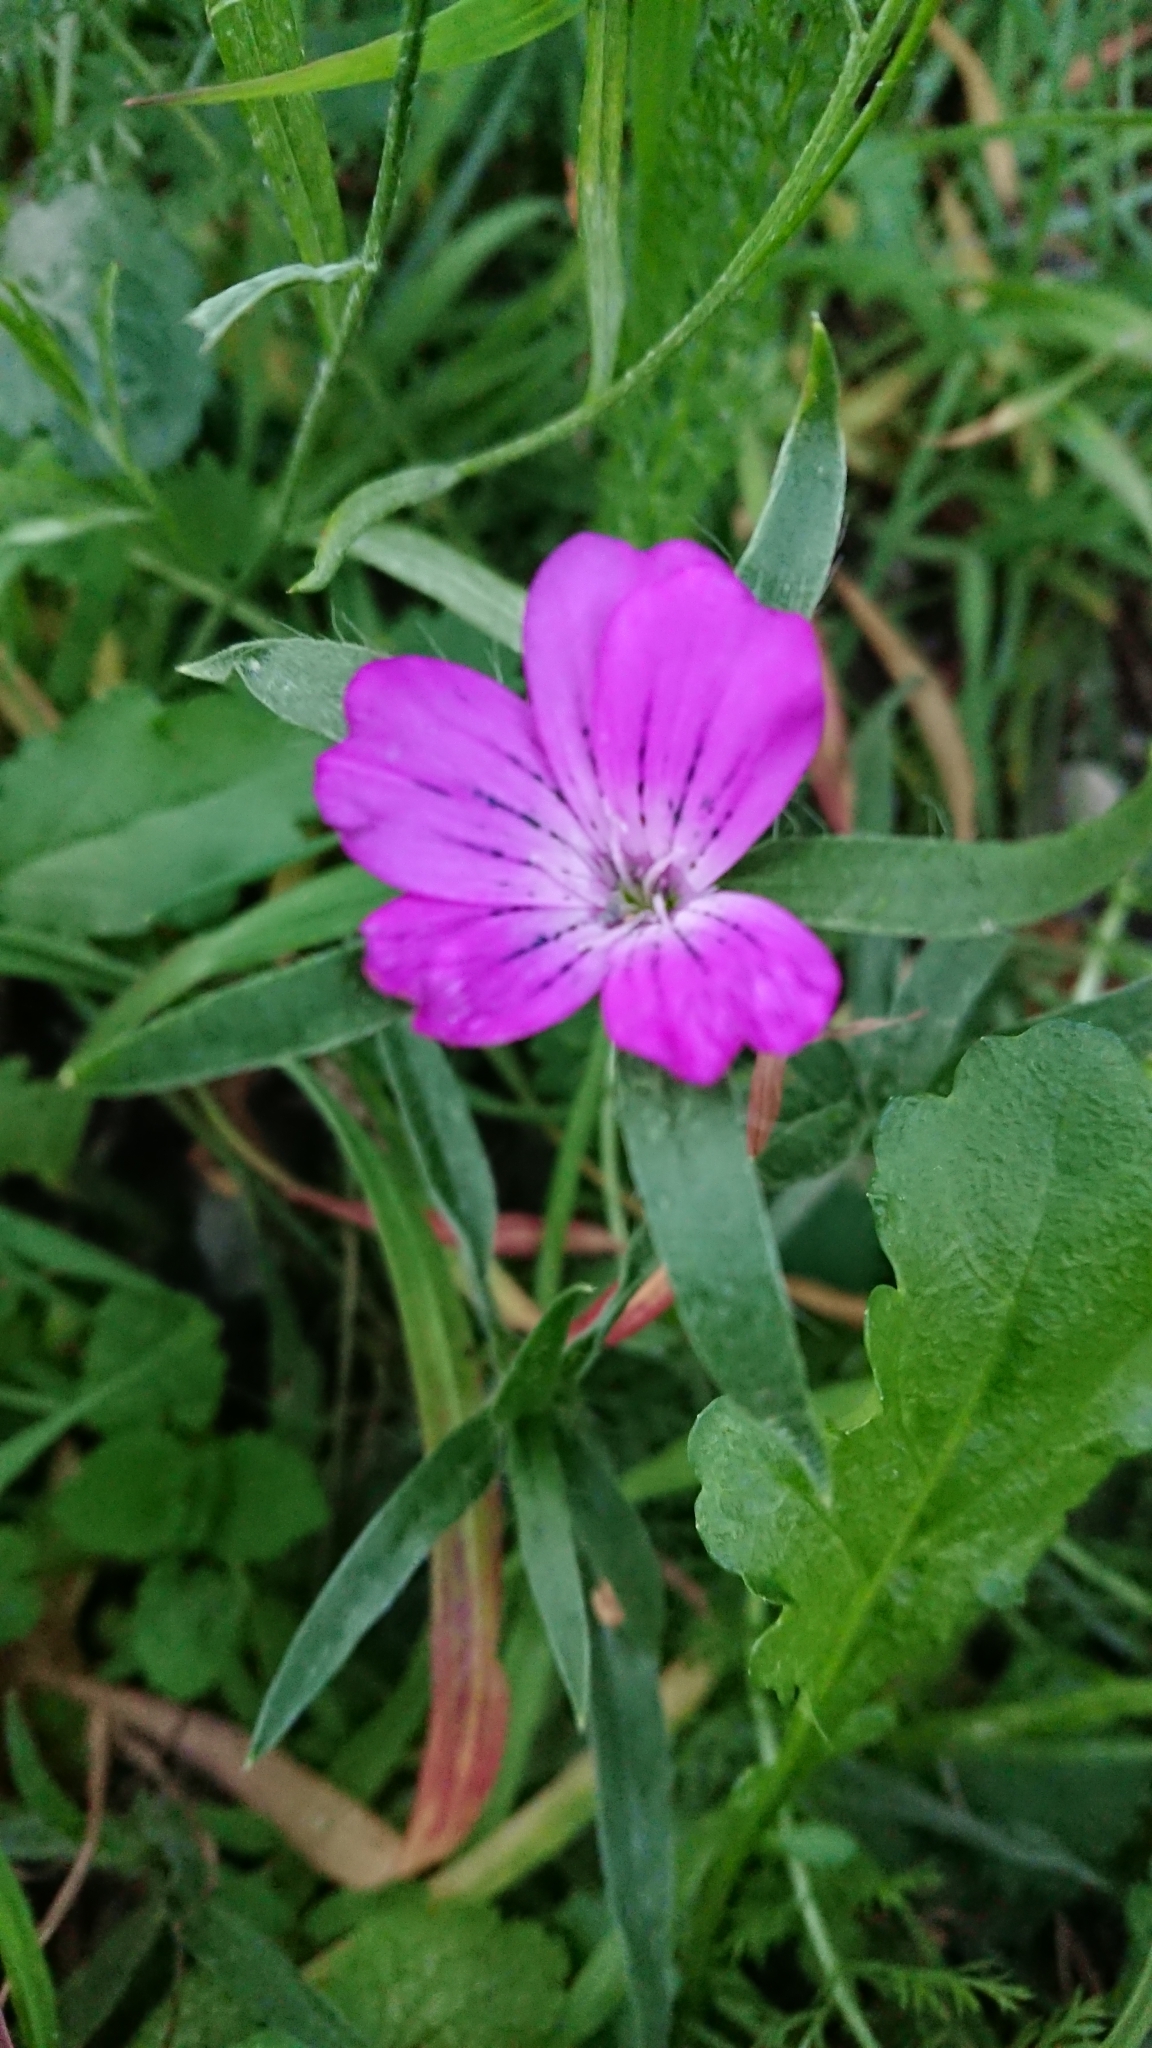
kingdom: Plantae
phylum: Tracheophyta
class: Magnoliopsida
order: Caryophyllales
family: Caryophyllaceae
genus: Agrostemma
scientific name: Agrostemma githago
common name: Common corncockle
